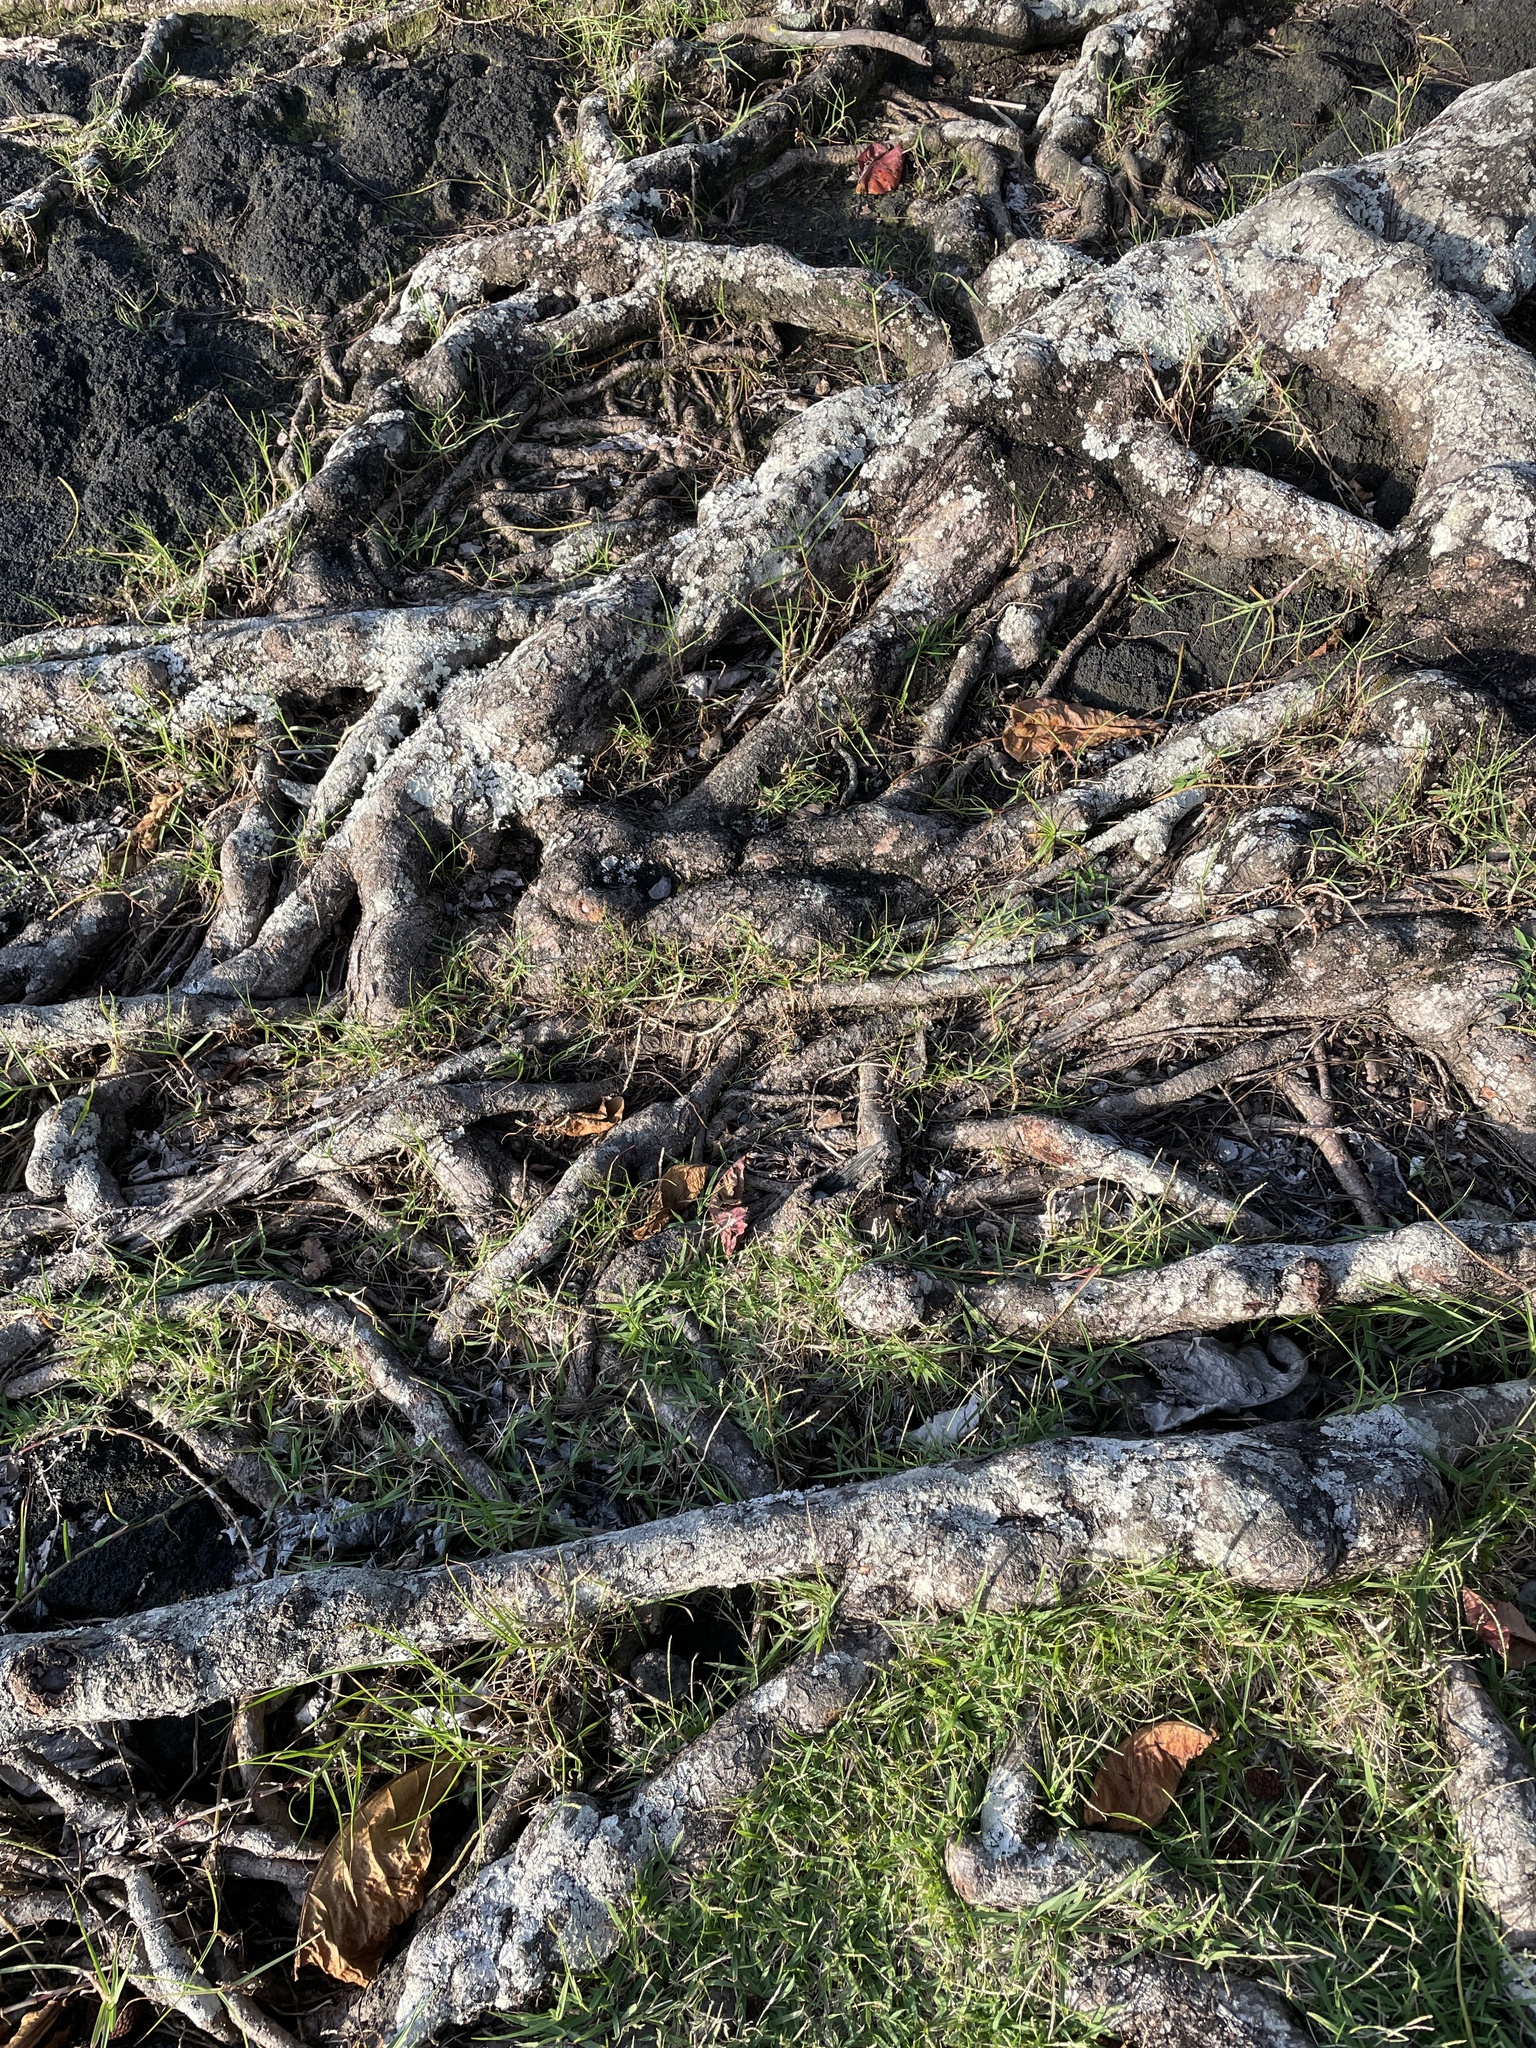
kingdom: Plantae
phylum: Tracheophyta
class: Magnoliopsida
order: Myrtales
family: Combretaceae
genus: Terminalia
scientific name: Terminalia catappa
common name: Tropical almond
